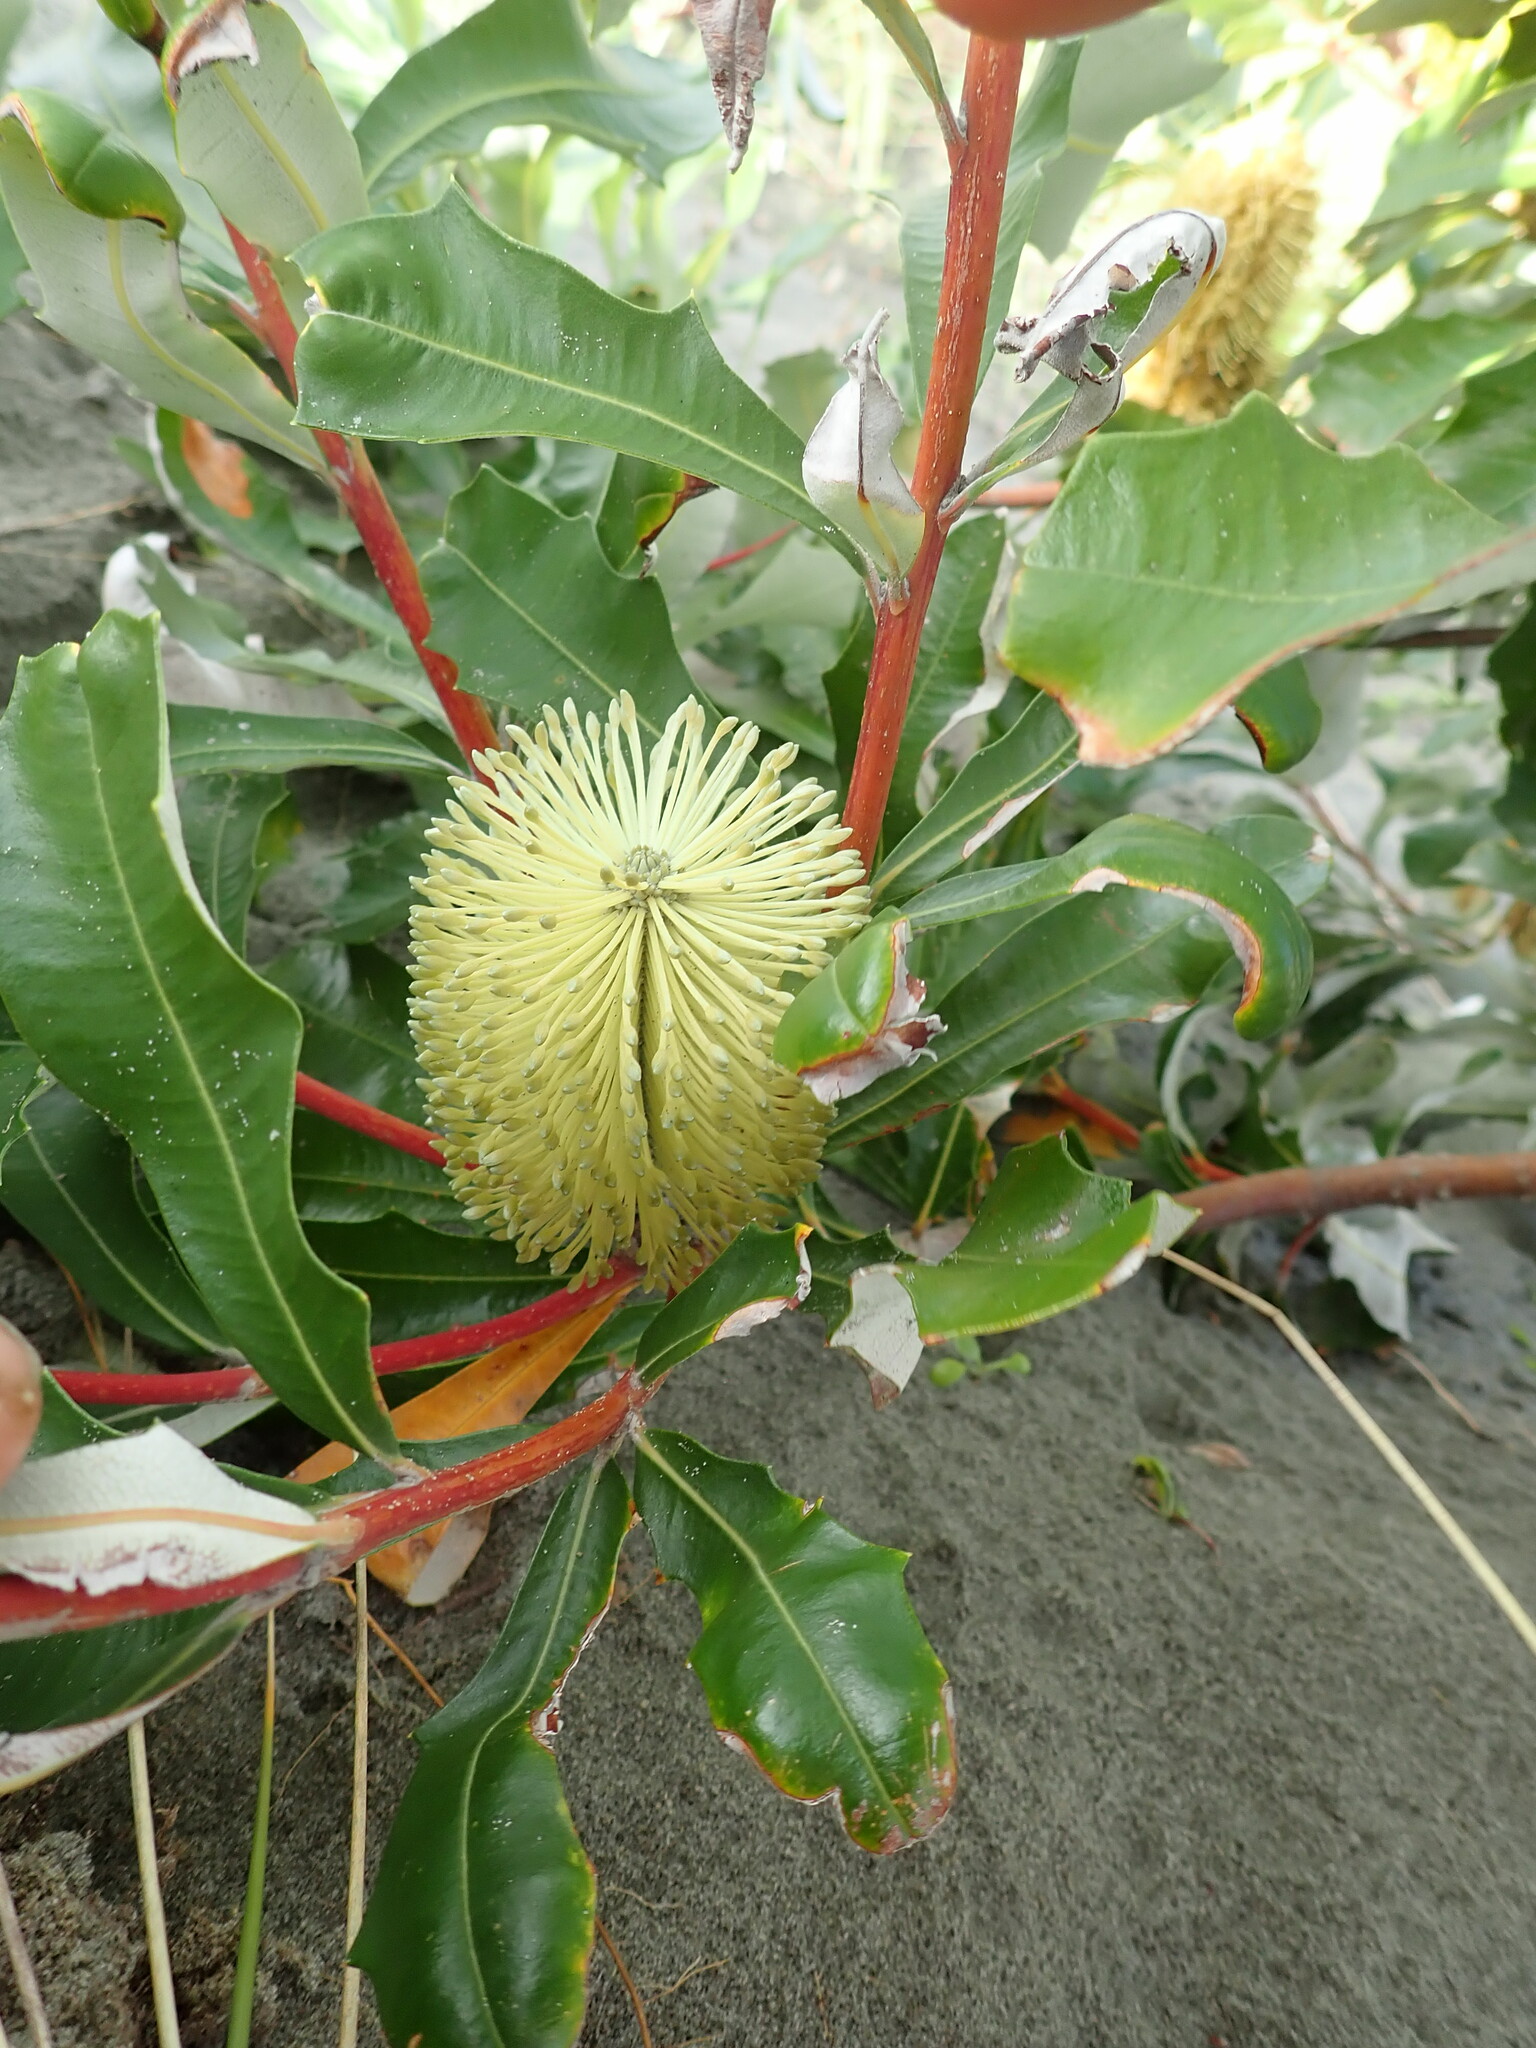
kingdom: Plantae
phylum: Tracheophyta
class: Magnoliopsida
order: Proteales
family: Proteaceae
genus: Banksia
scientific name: Banksia integrifolia
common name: White-honeysuckle
